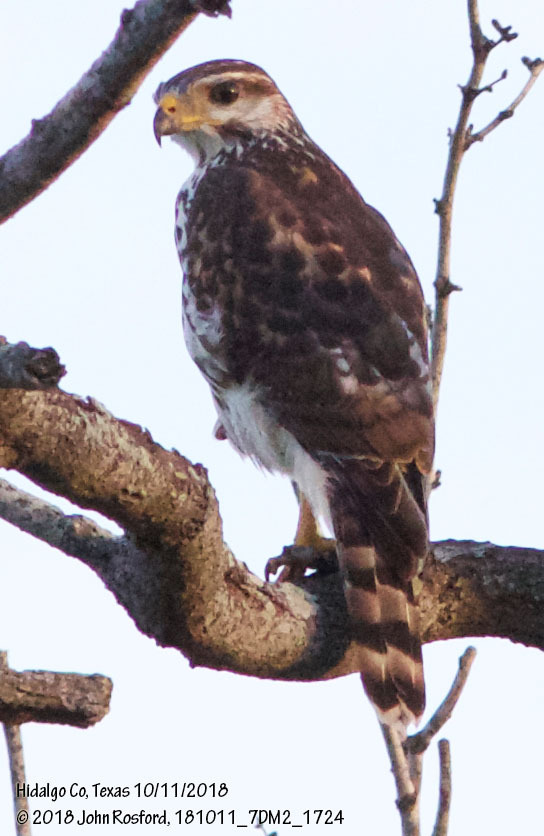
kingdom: Animalia
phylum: Chordata
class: Aves
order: Accipitriformes
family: Accipitridae
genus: Buteo
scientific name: Buteo nitidus
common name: Grey-lined hawk
